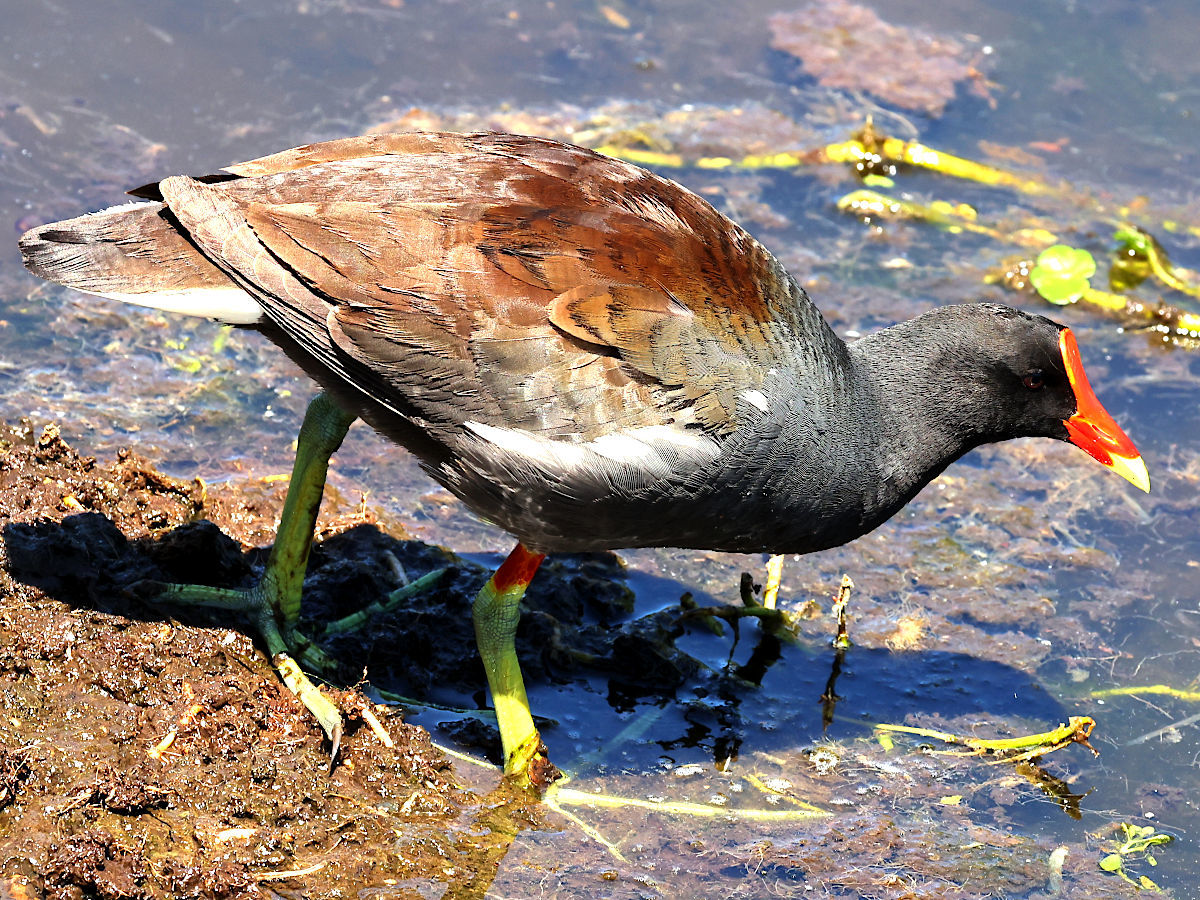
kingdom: Animalia
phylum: Chordata
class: Aves
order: Gruiformes
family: Rallidae
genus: Gallinula
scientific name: Gallinula chloropus
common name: Common moorhen
